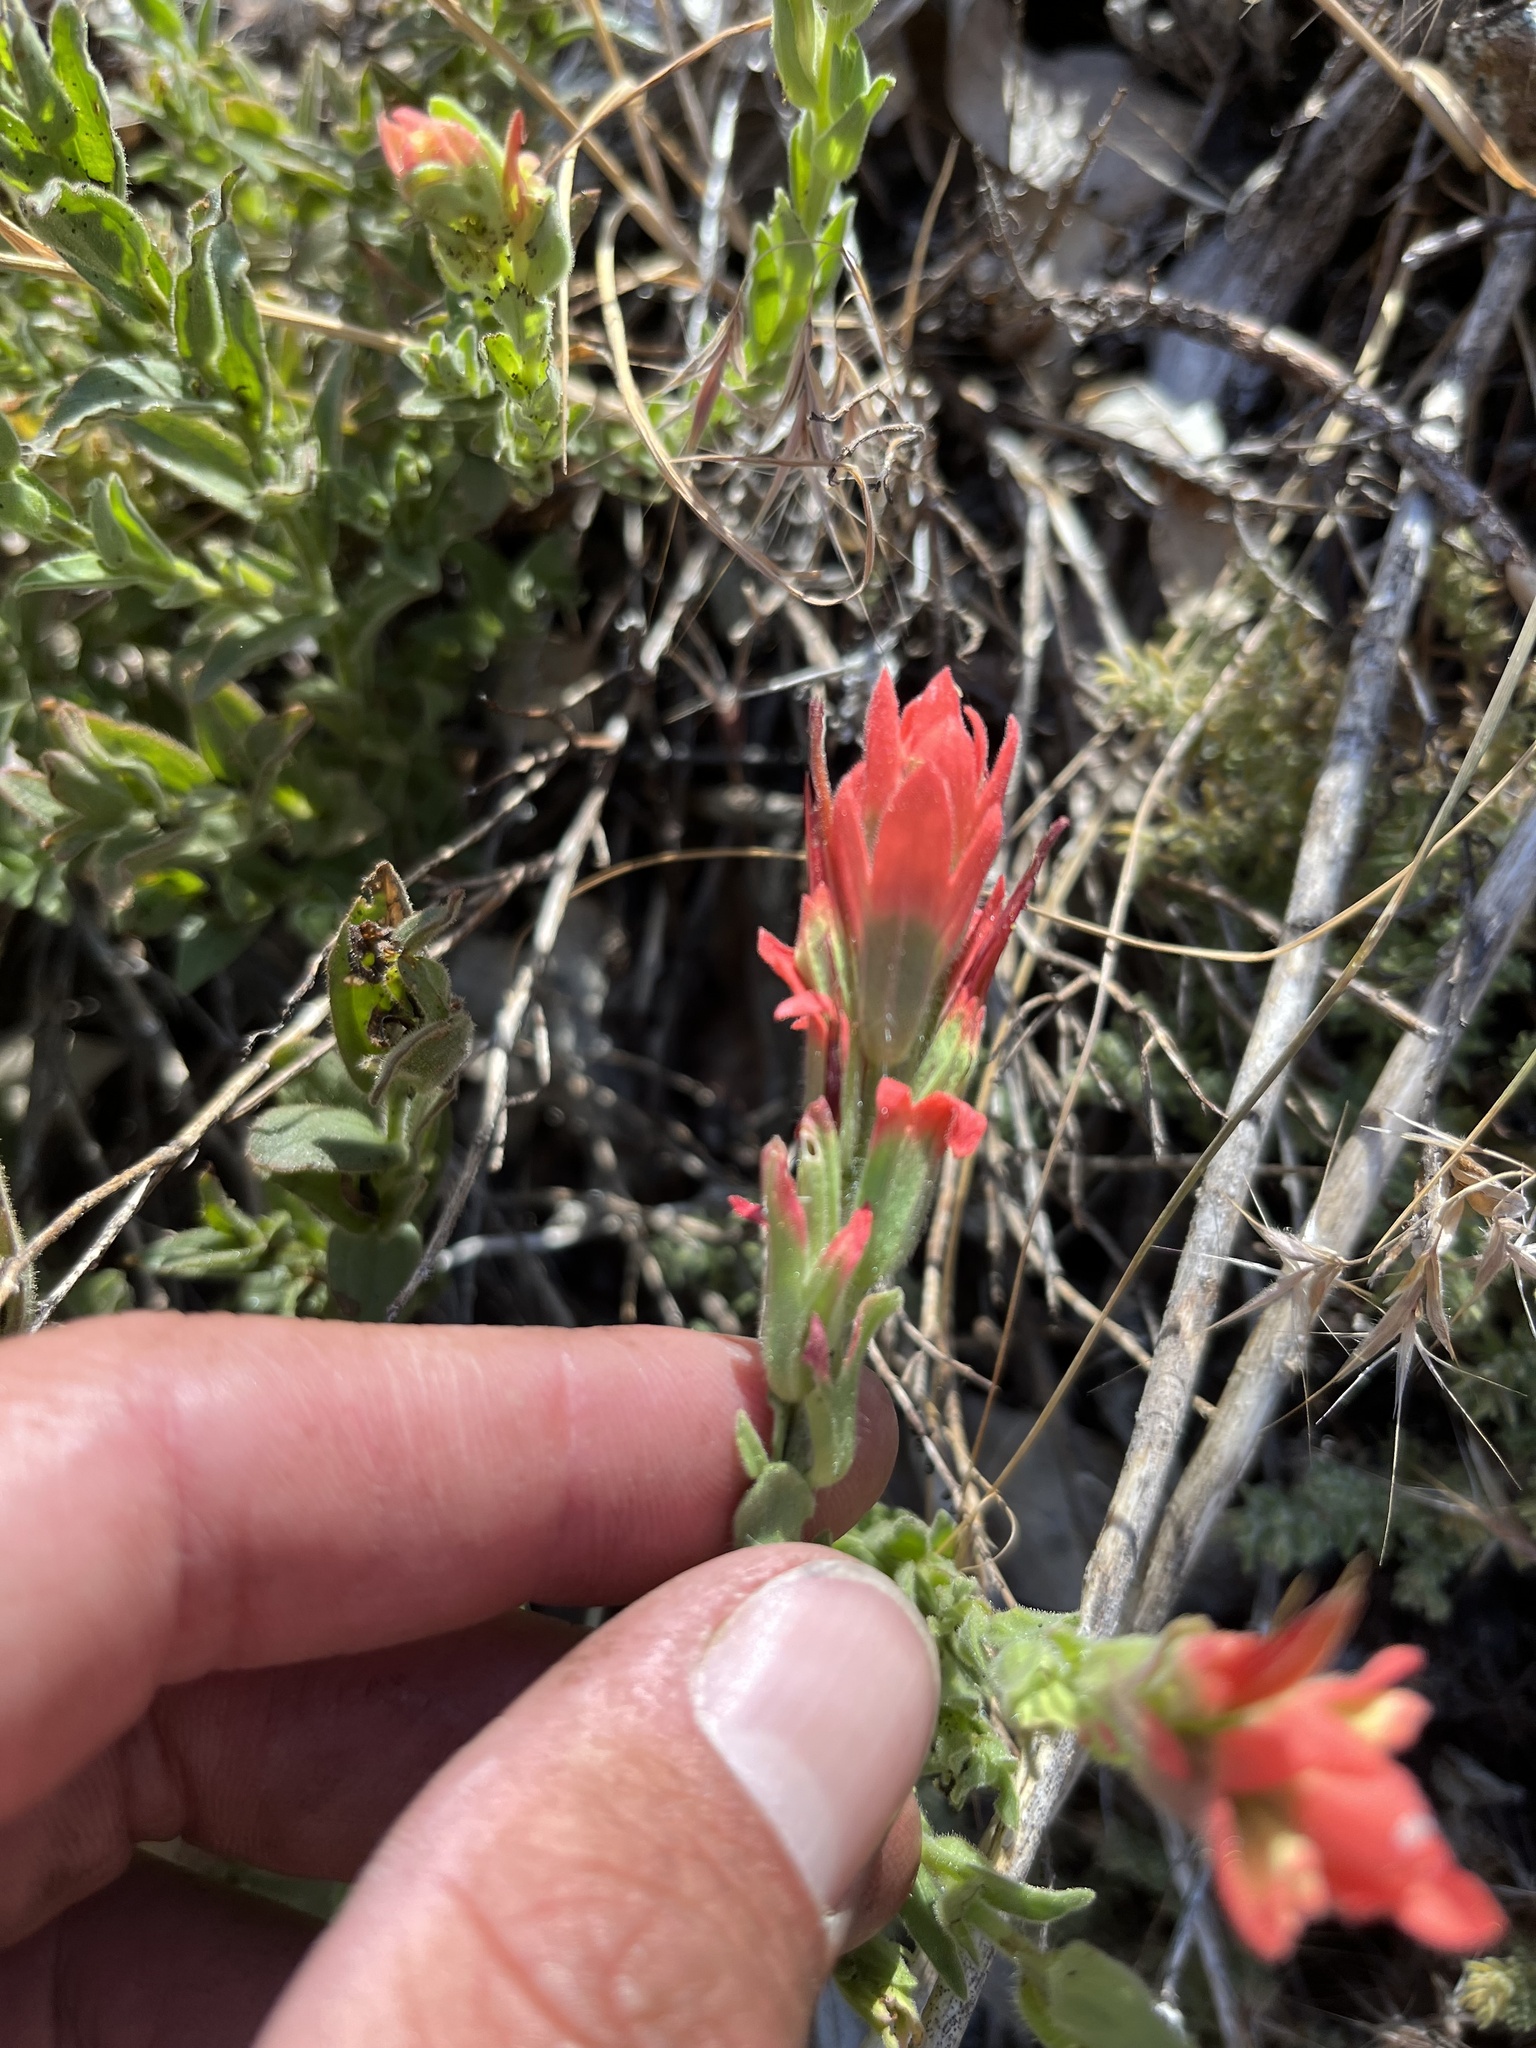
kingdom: Plantae
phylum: Tracheophyta
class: Magnoliopsida
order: Lamiales
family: Orobanchaceae
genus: Castilleja
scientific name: Castilleja foliolosa
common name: Woolly indian paintbrush
